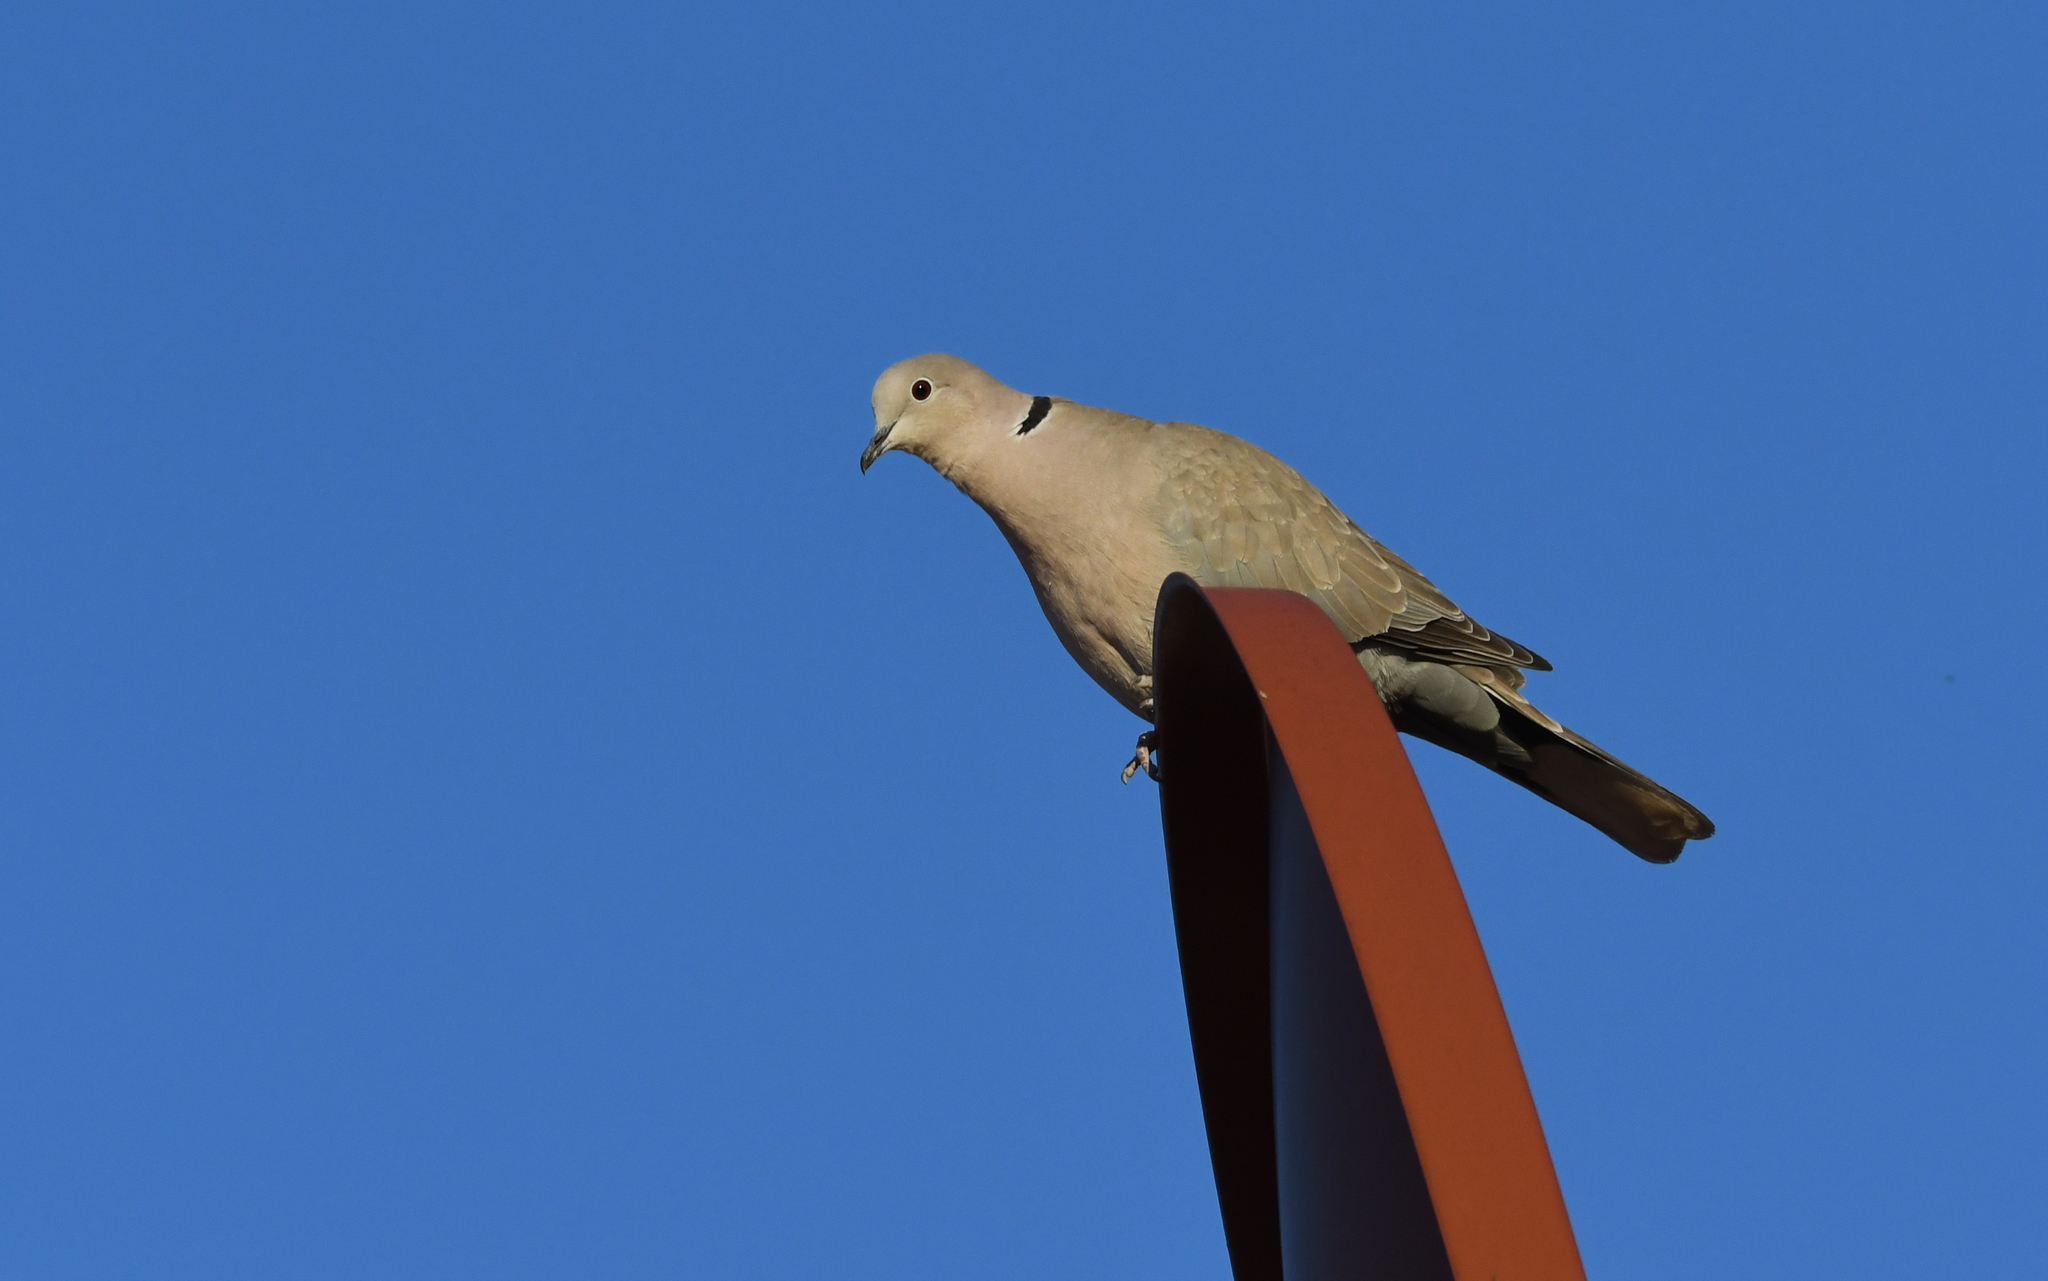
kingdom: Animalia
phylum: Chordata
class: Aves
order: Columbiformes
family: Columbidae
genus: Streptopelia
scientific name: Streptopelia decaocto
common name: Eurasian collared dove
